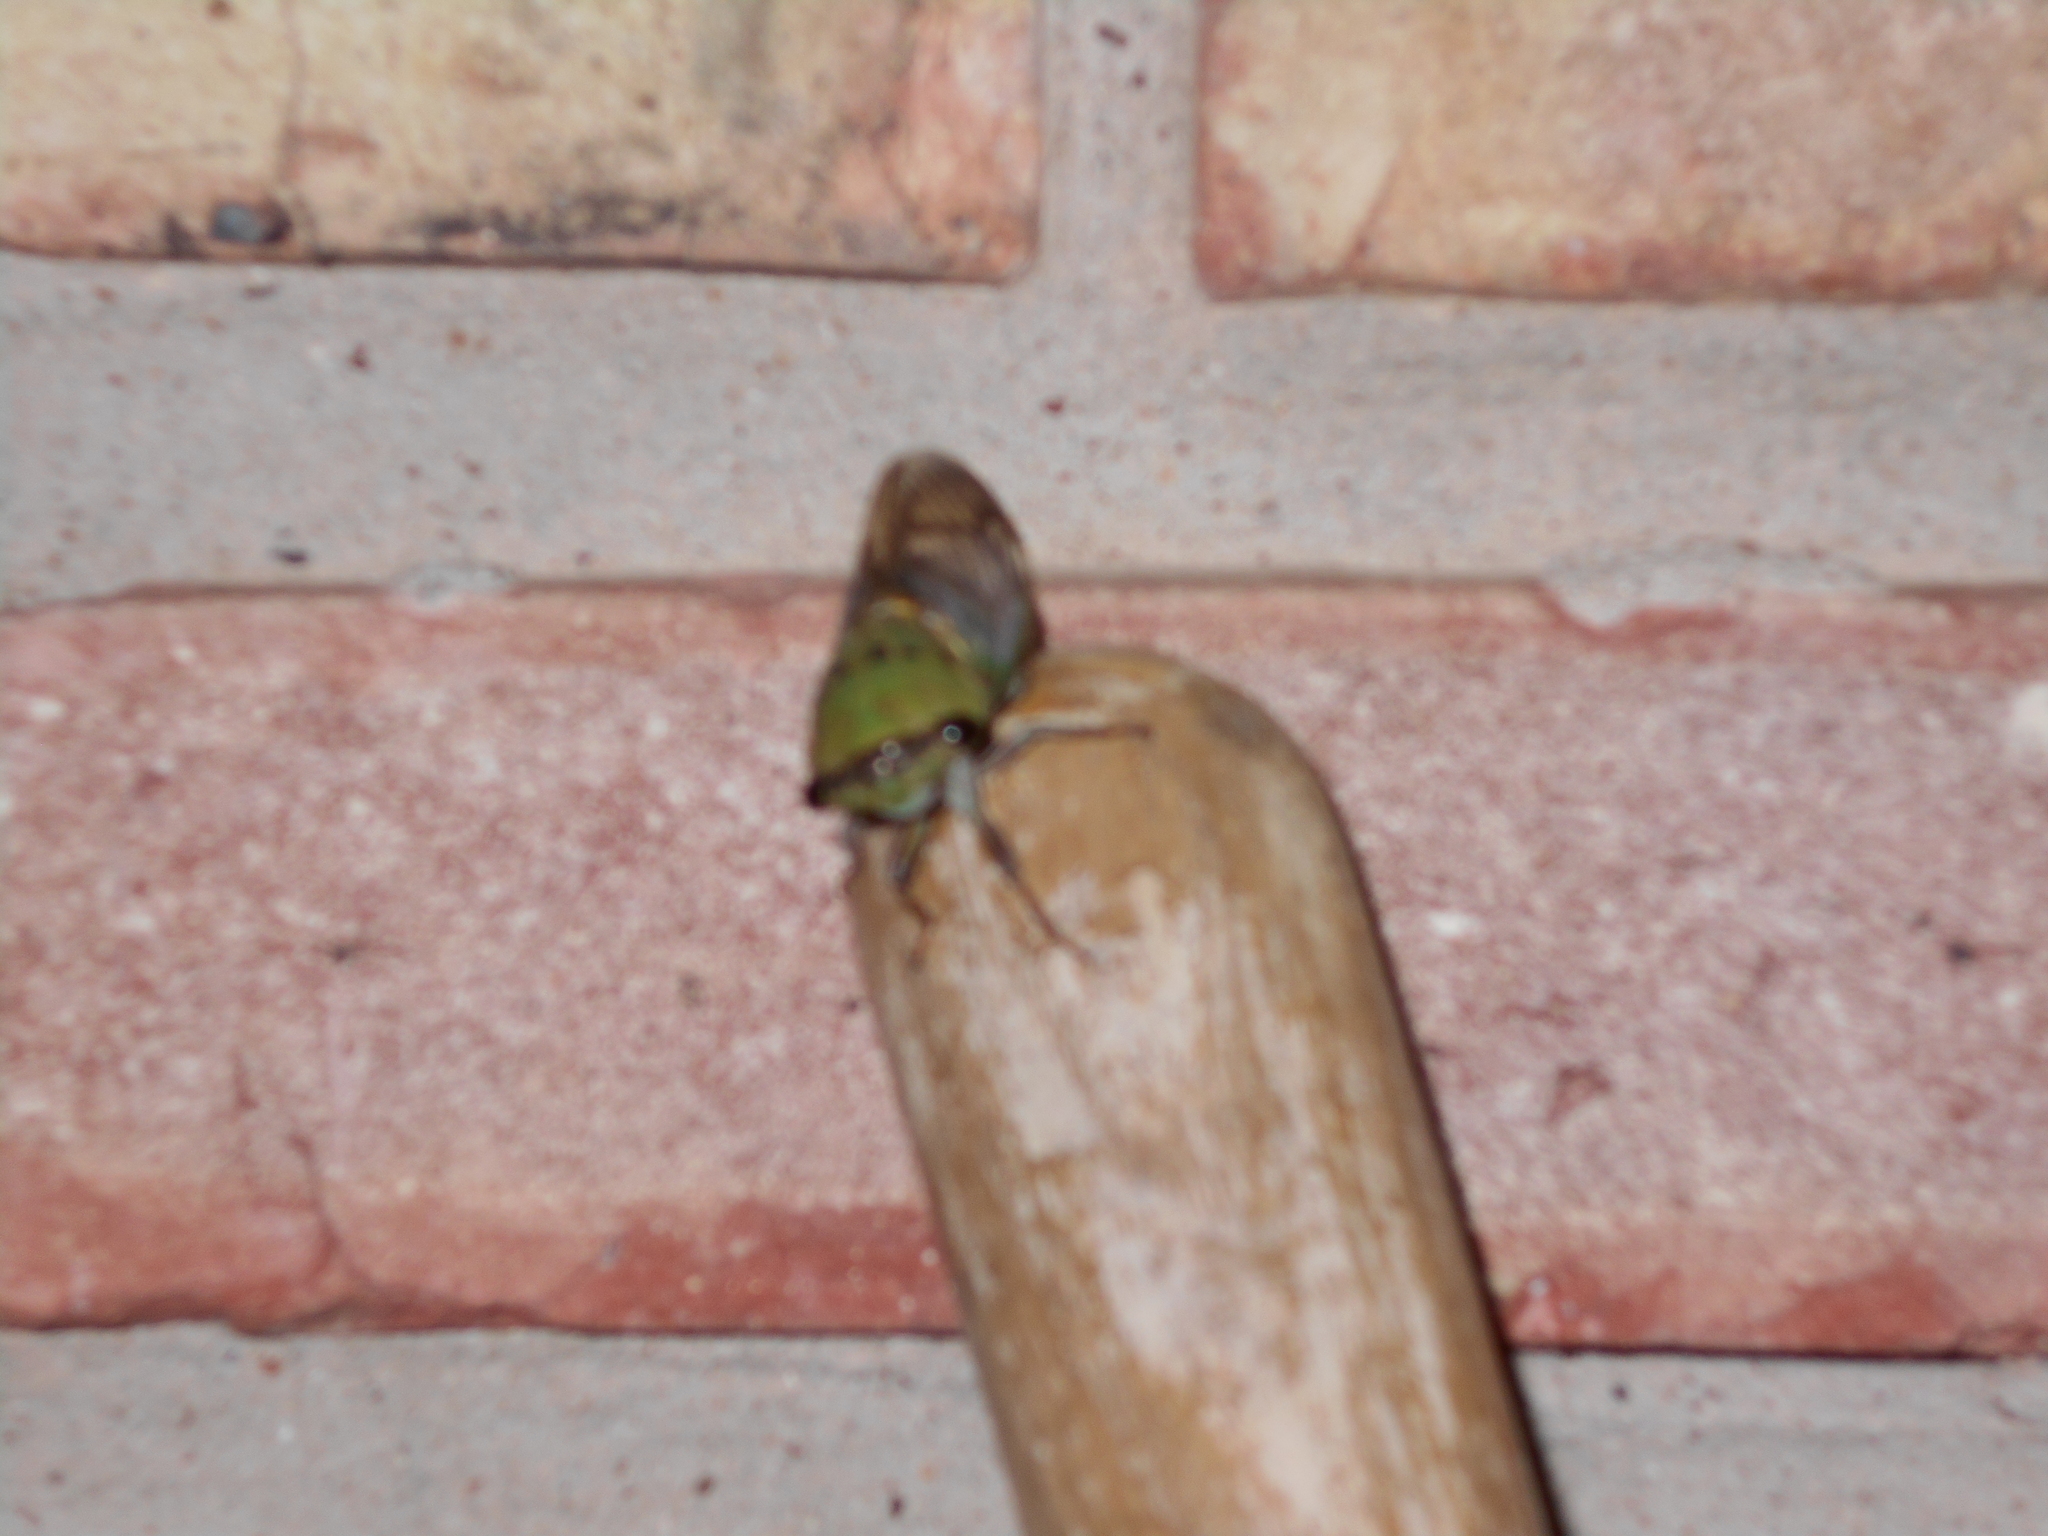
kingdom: Animalia
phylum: Arthropoda
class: Insecta
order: Hemiptera
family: Cicadidae
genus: Neotibicen
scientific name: Neotibicen superbus
